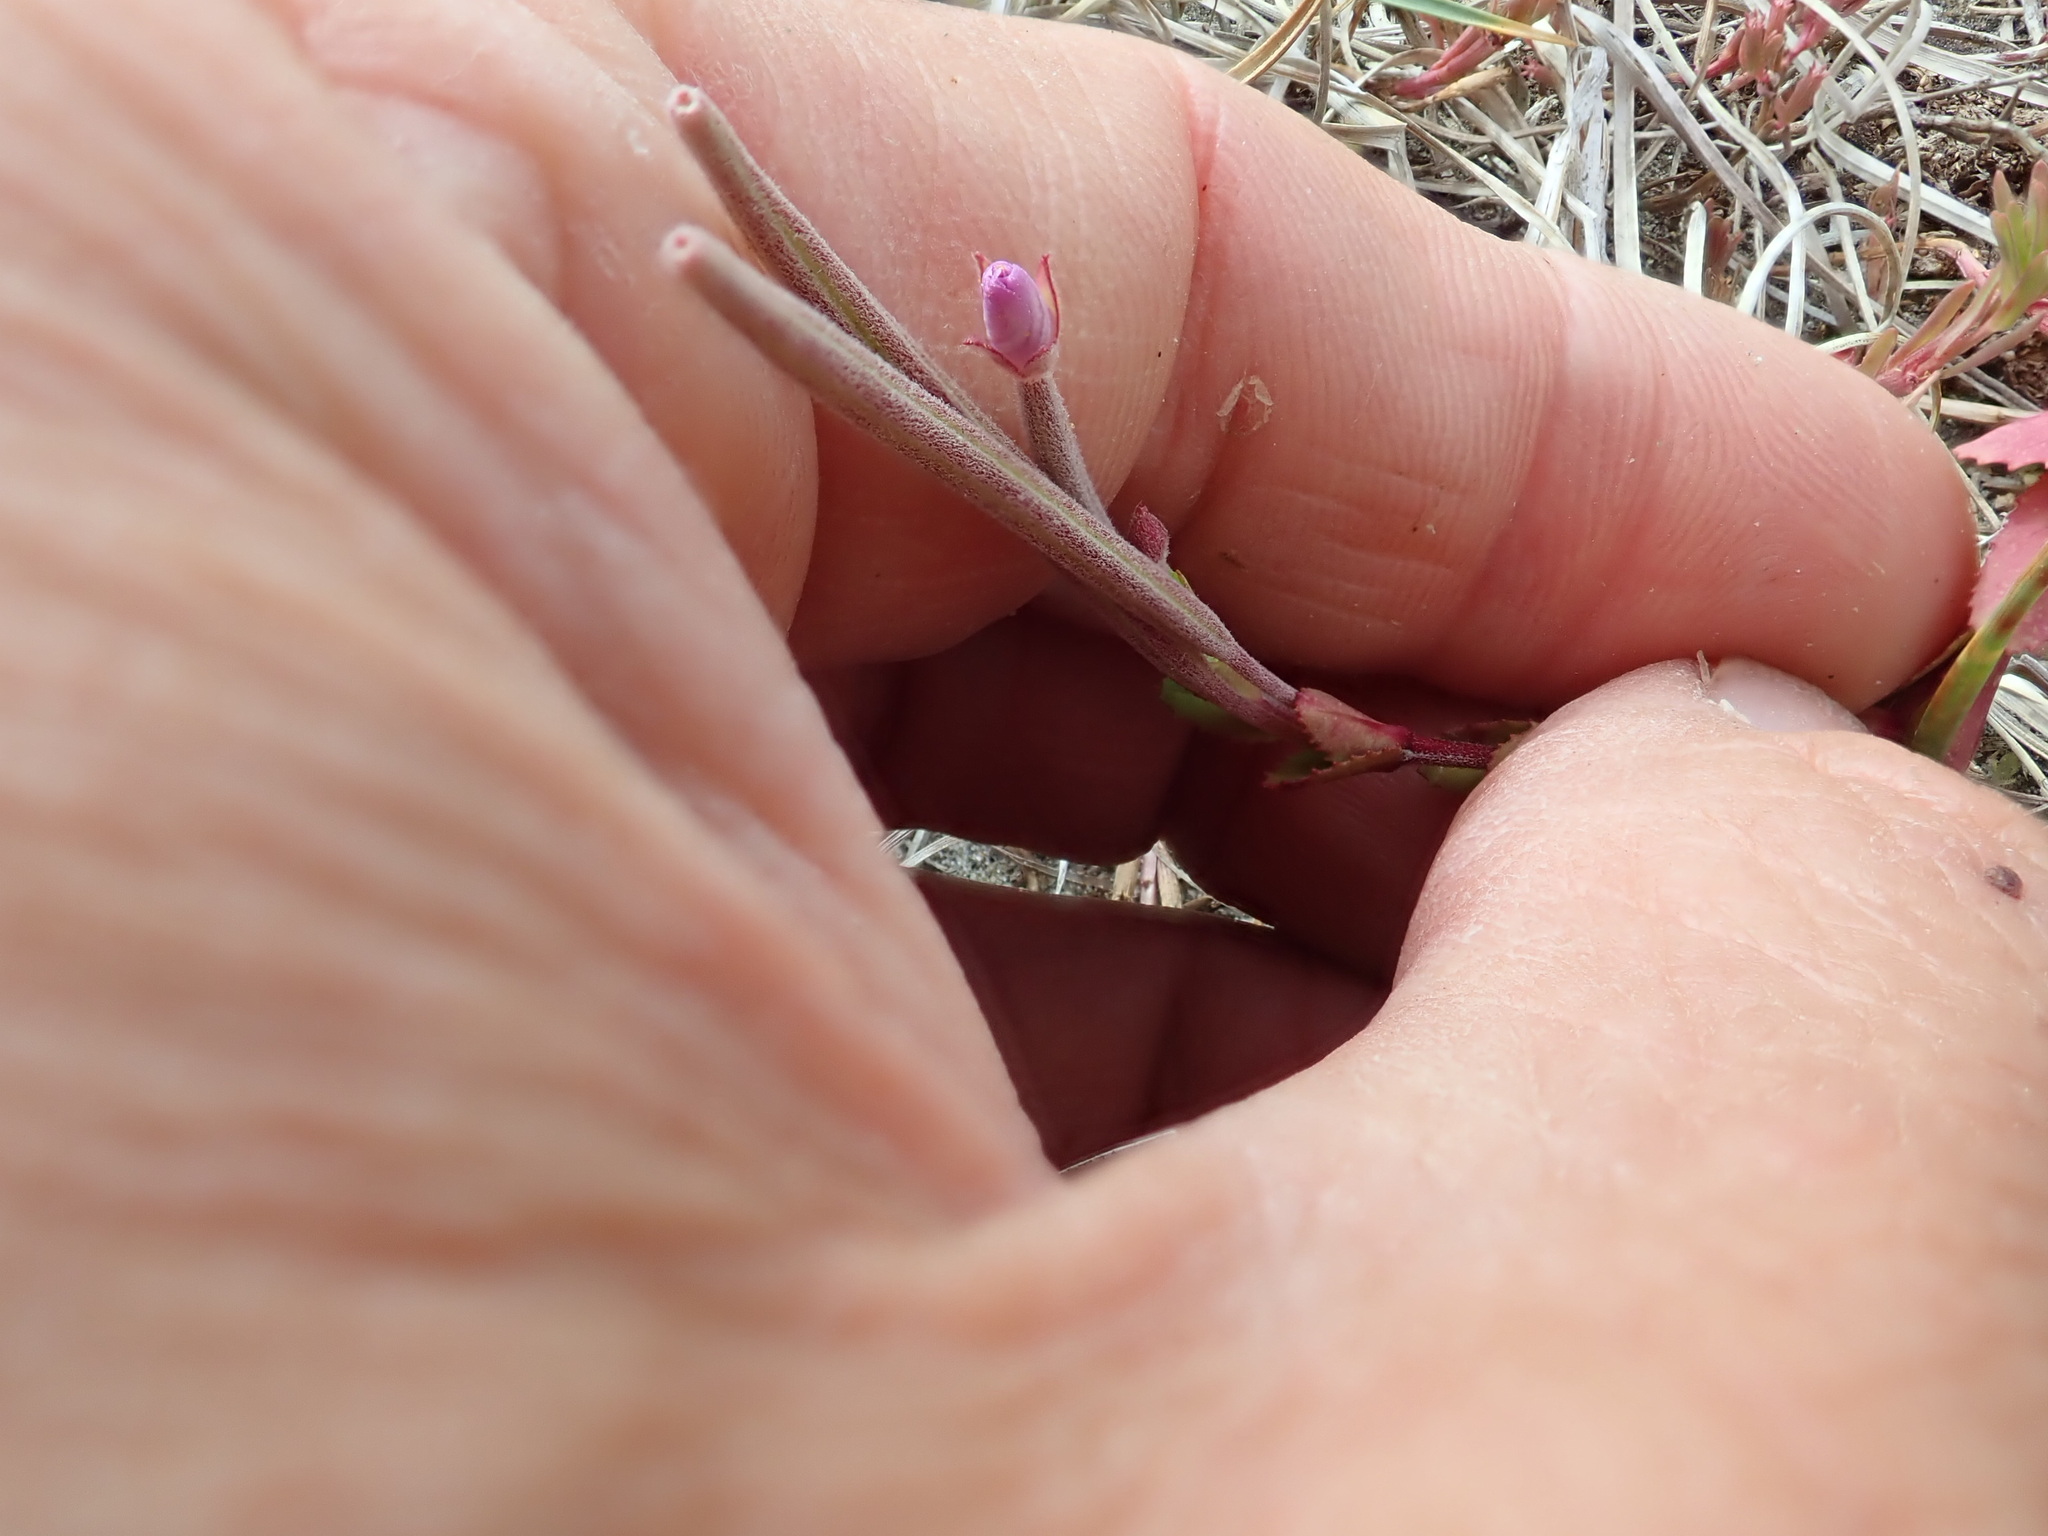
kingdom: Plantae
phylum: Tracheophyta
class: Magnoliopsida
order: Myrtales
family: Onagraceae
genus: Epilobium
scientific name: Epilobium billardiereanum
